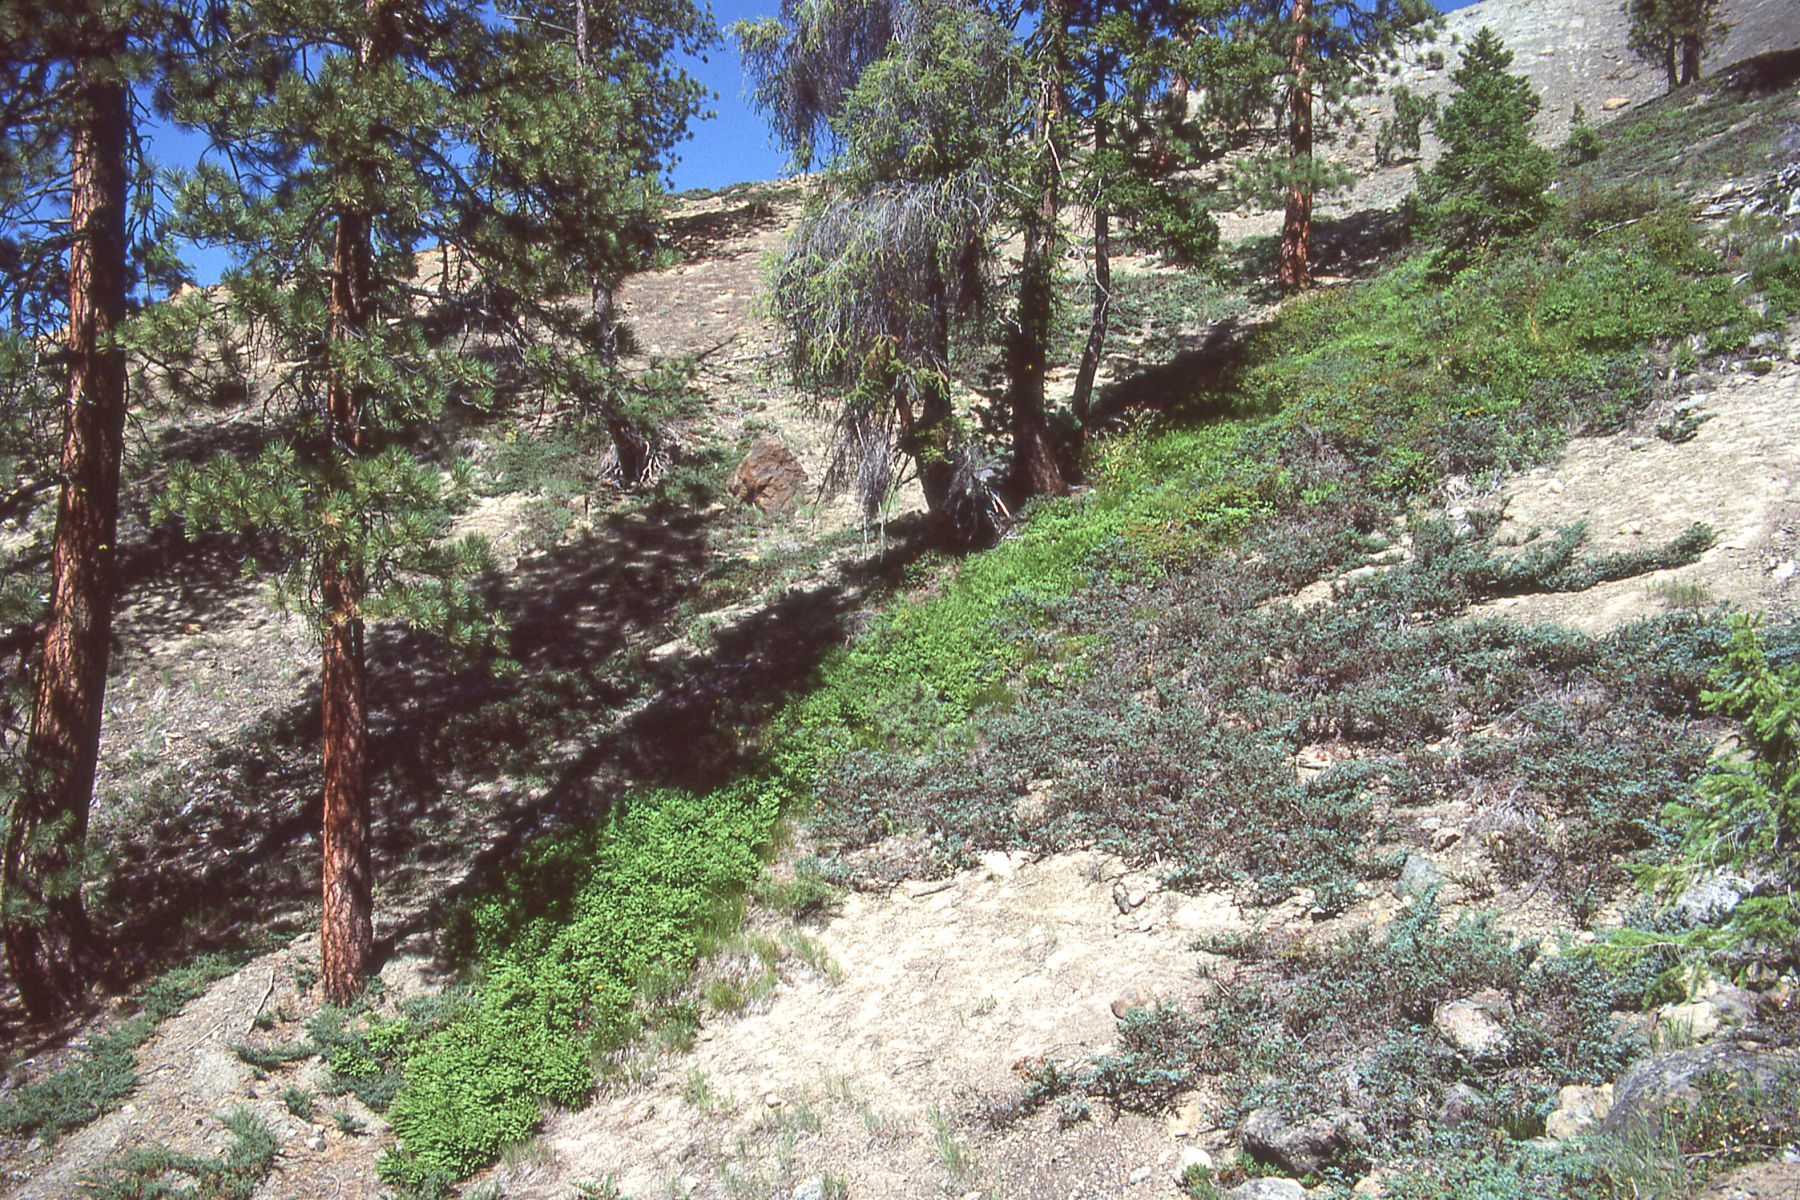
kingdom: Plantae
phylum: Tracheophyta
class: Polypodiopsida
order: Polypodiales
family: Pteridaceae
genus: Adiantum
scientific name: Adiantum aleuticum
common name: Aleutian maidenhair fern
